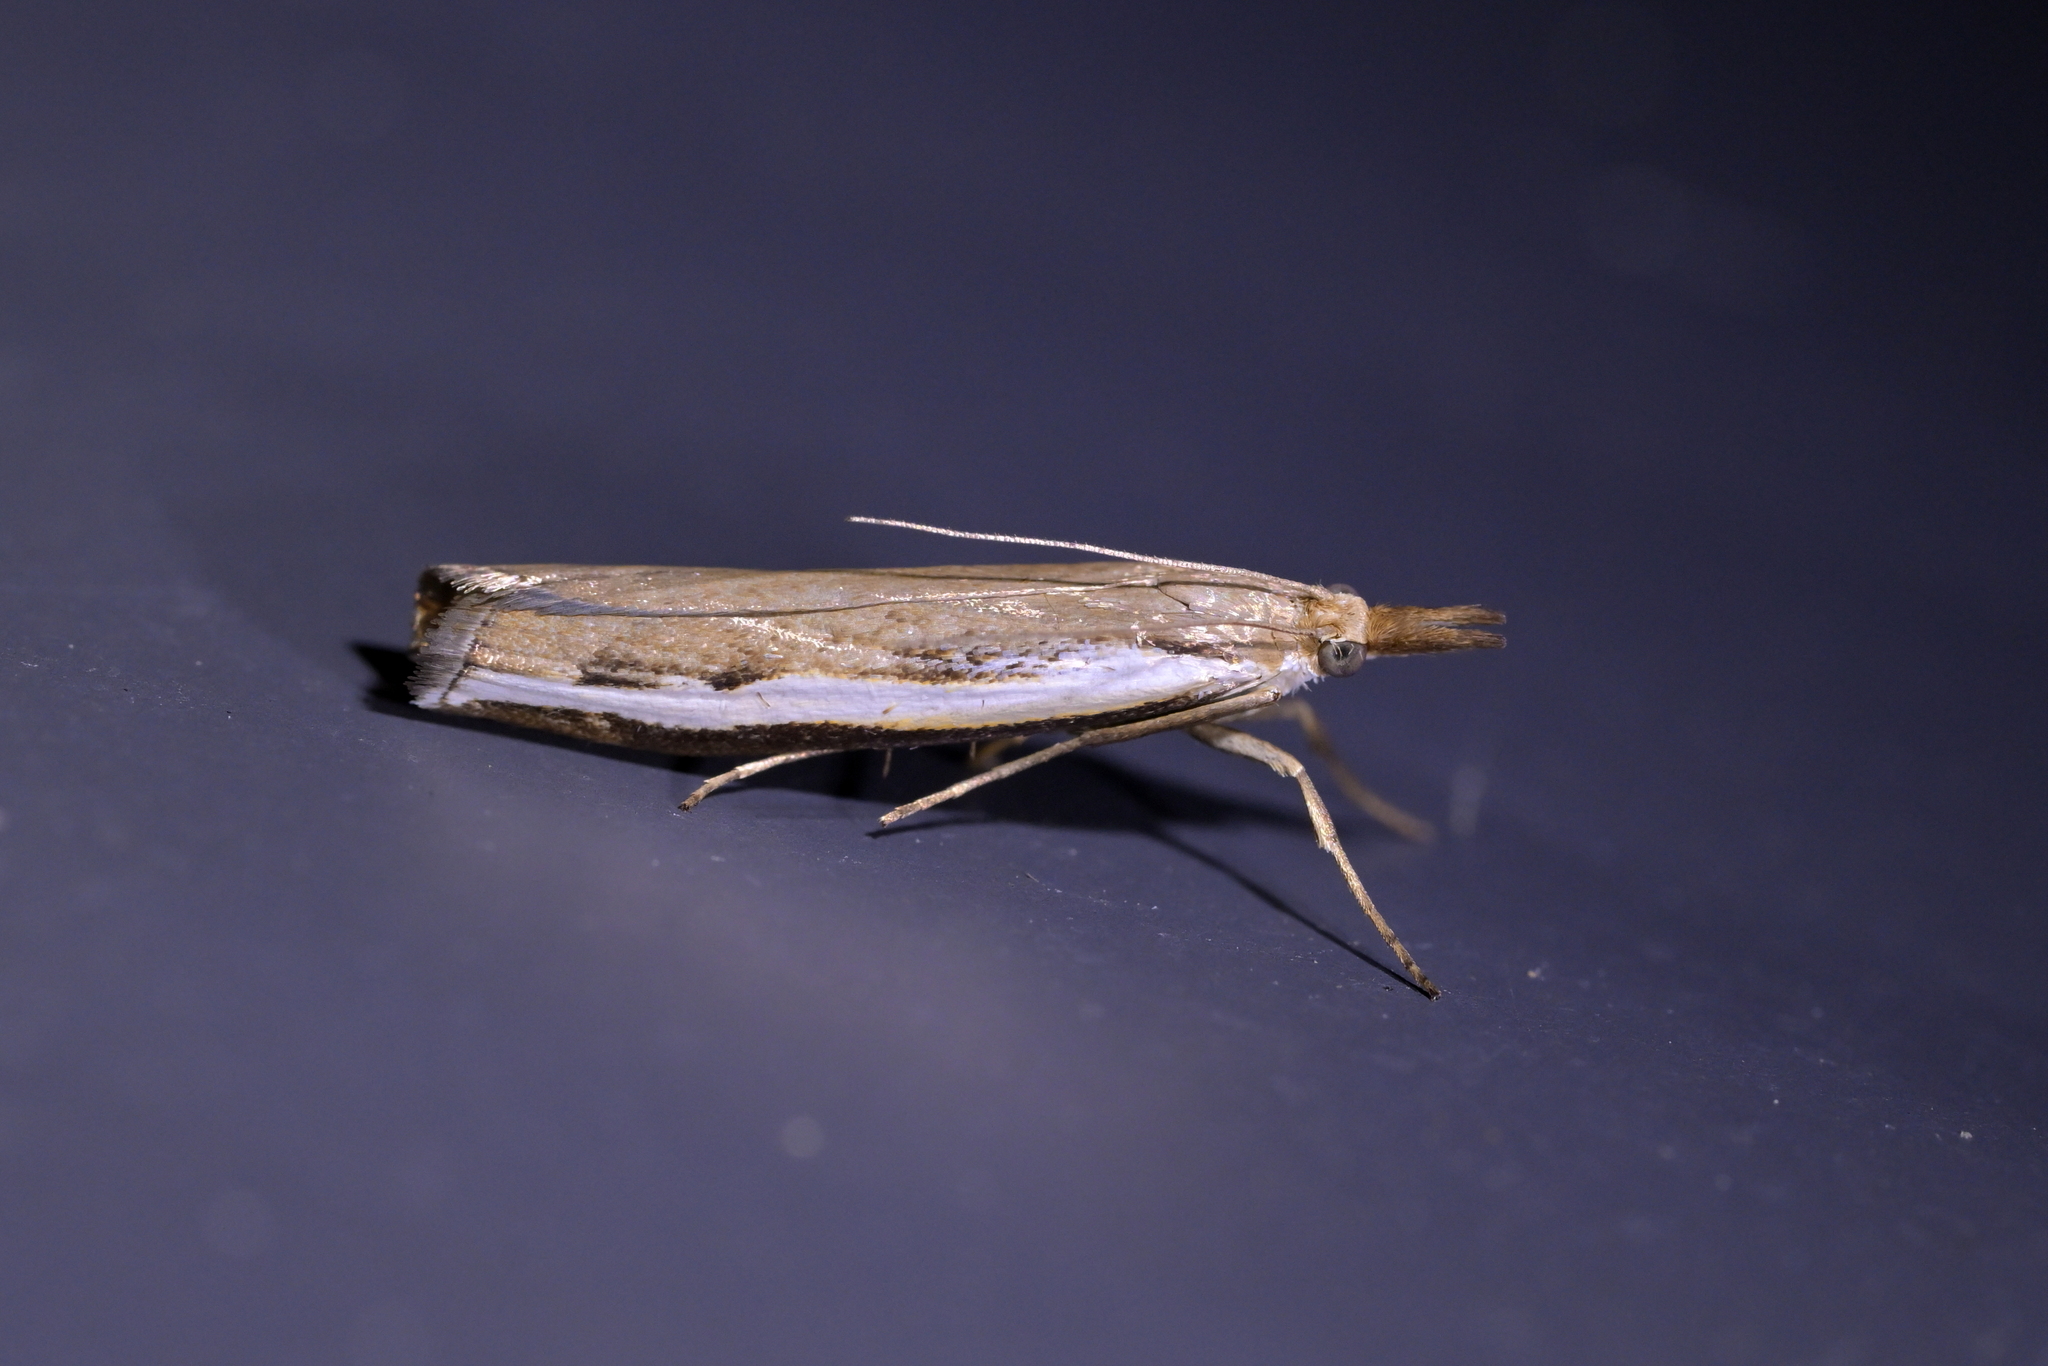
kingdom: Animalia
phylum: Arthropoda
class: Insecta
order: Lepidoptera
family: Crambidae
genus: Orocrambus
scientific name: Orocrambus flexuosellus
